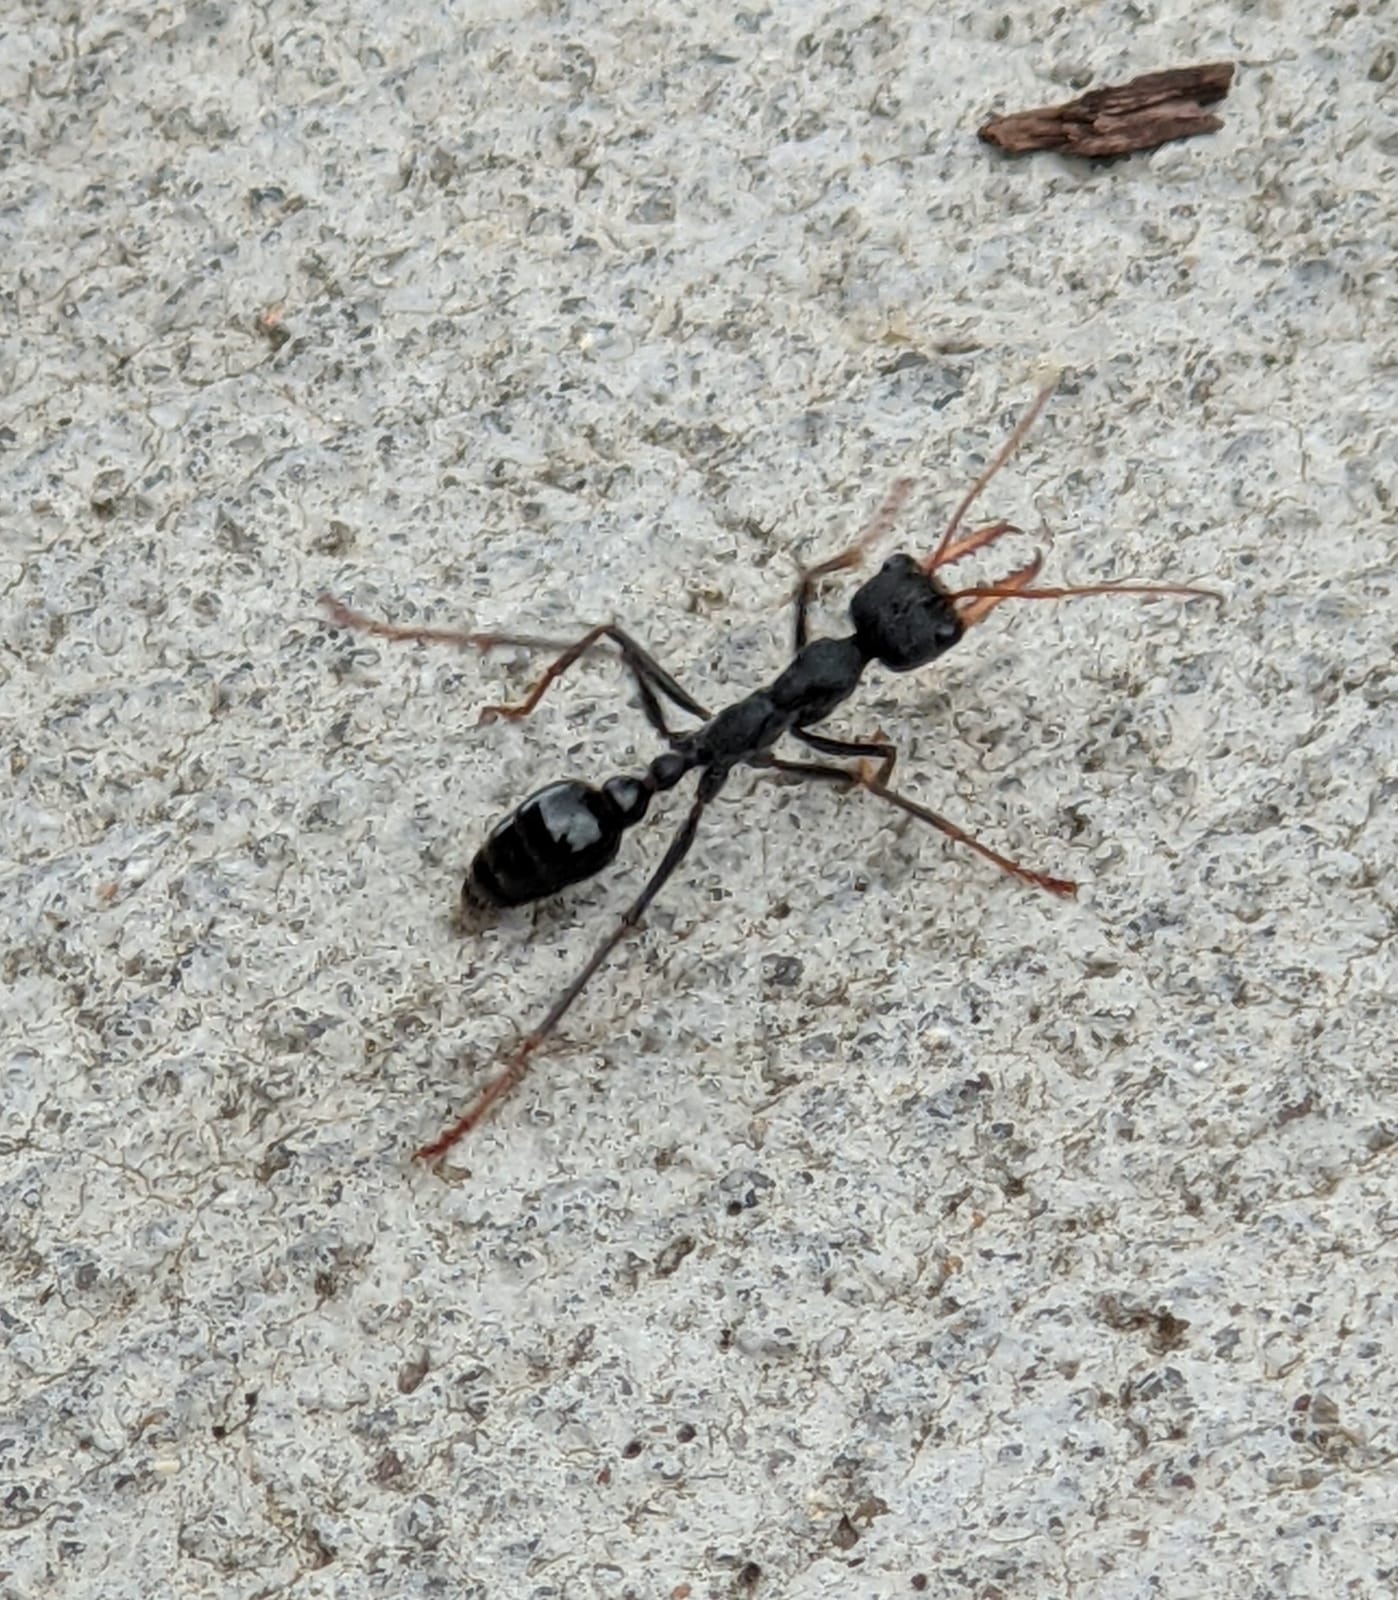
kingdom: Animalia
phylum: Arthropoda
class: Insecta
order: Hymenoptera
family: Formicidae
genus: Myrmecia
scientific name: Myrmecia simillima
